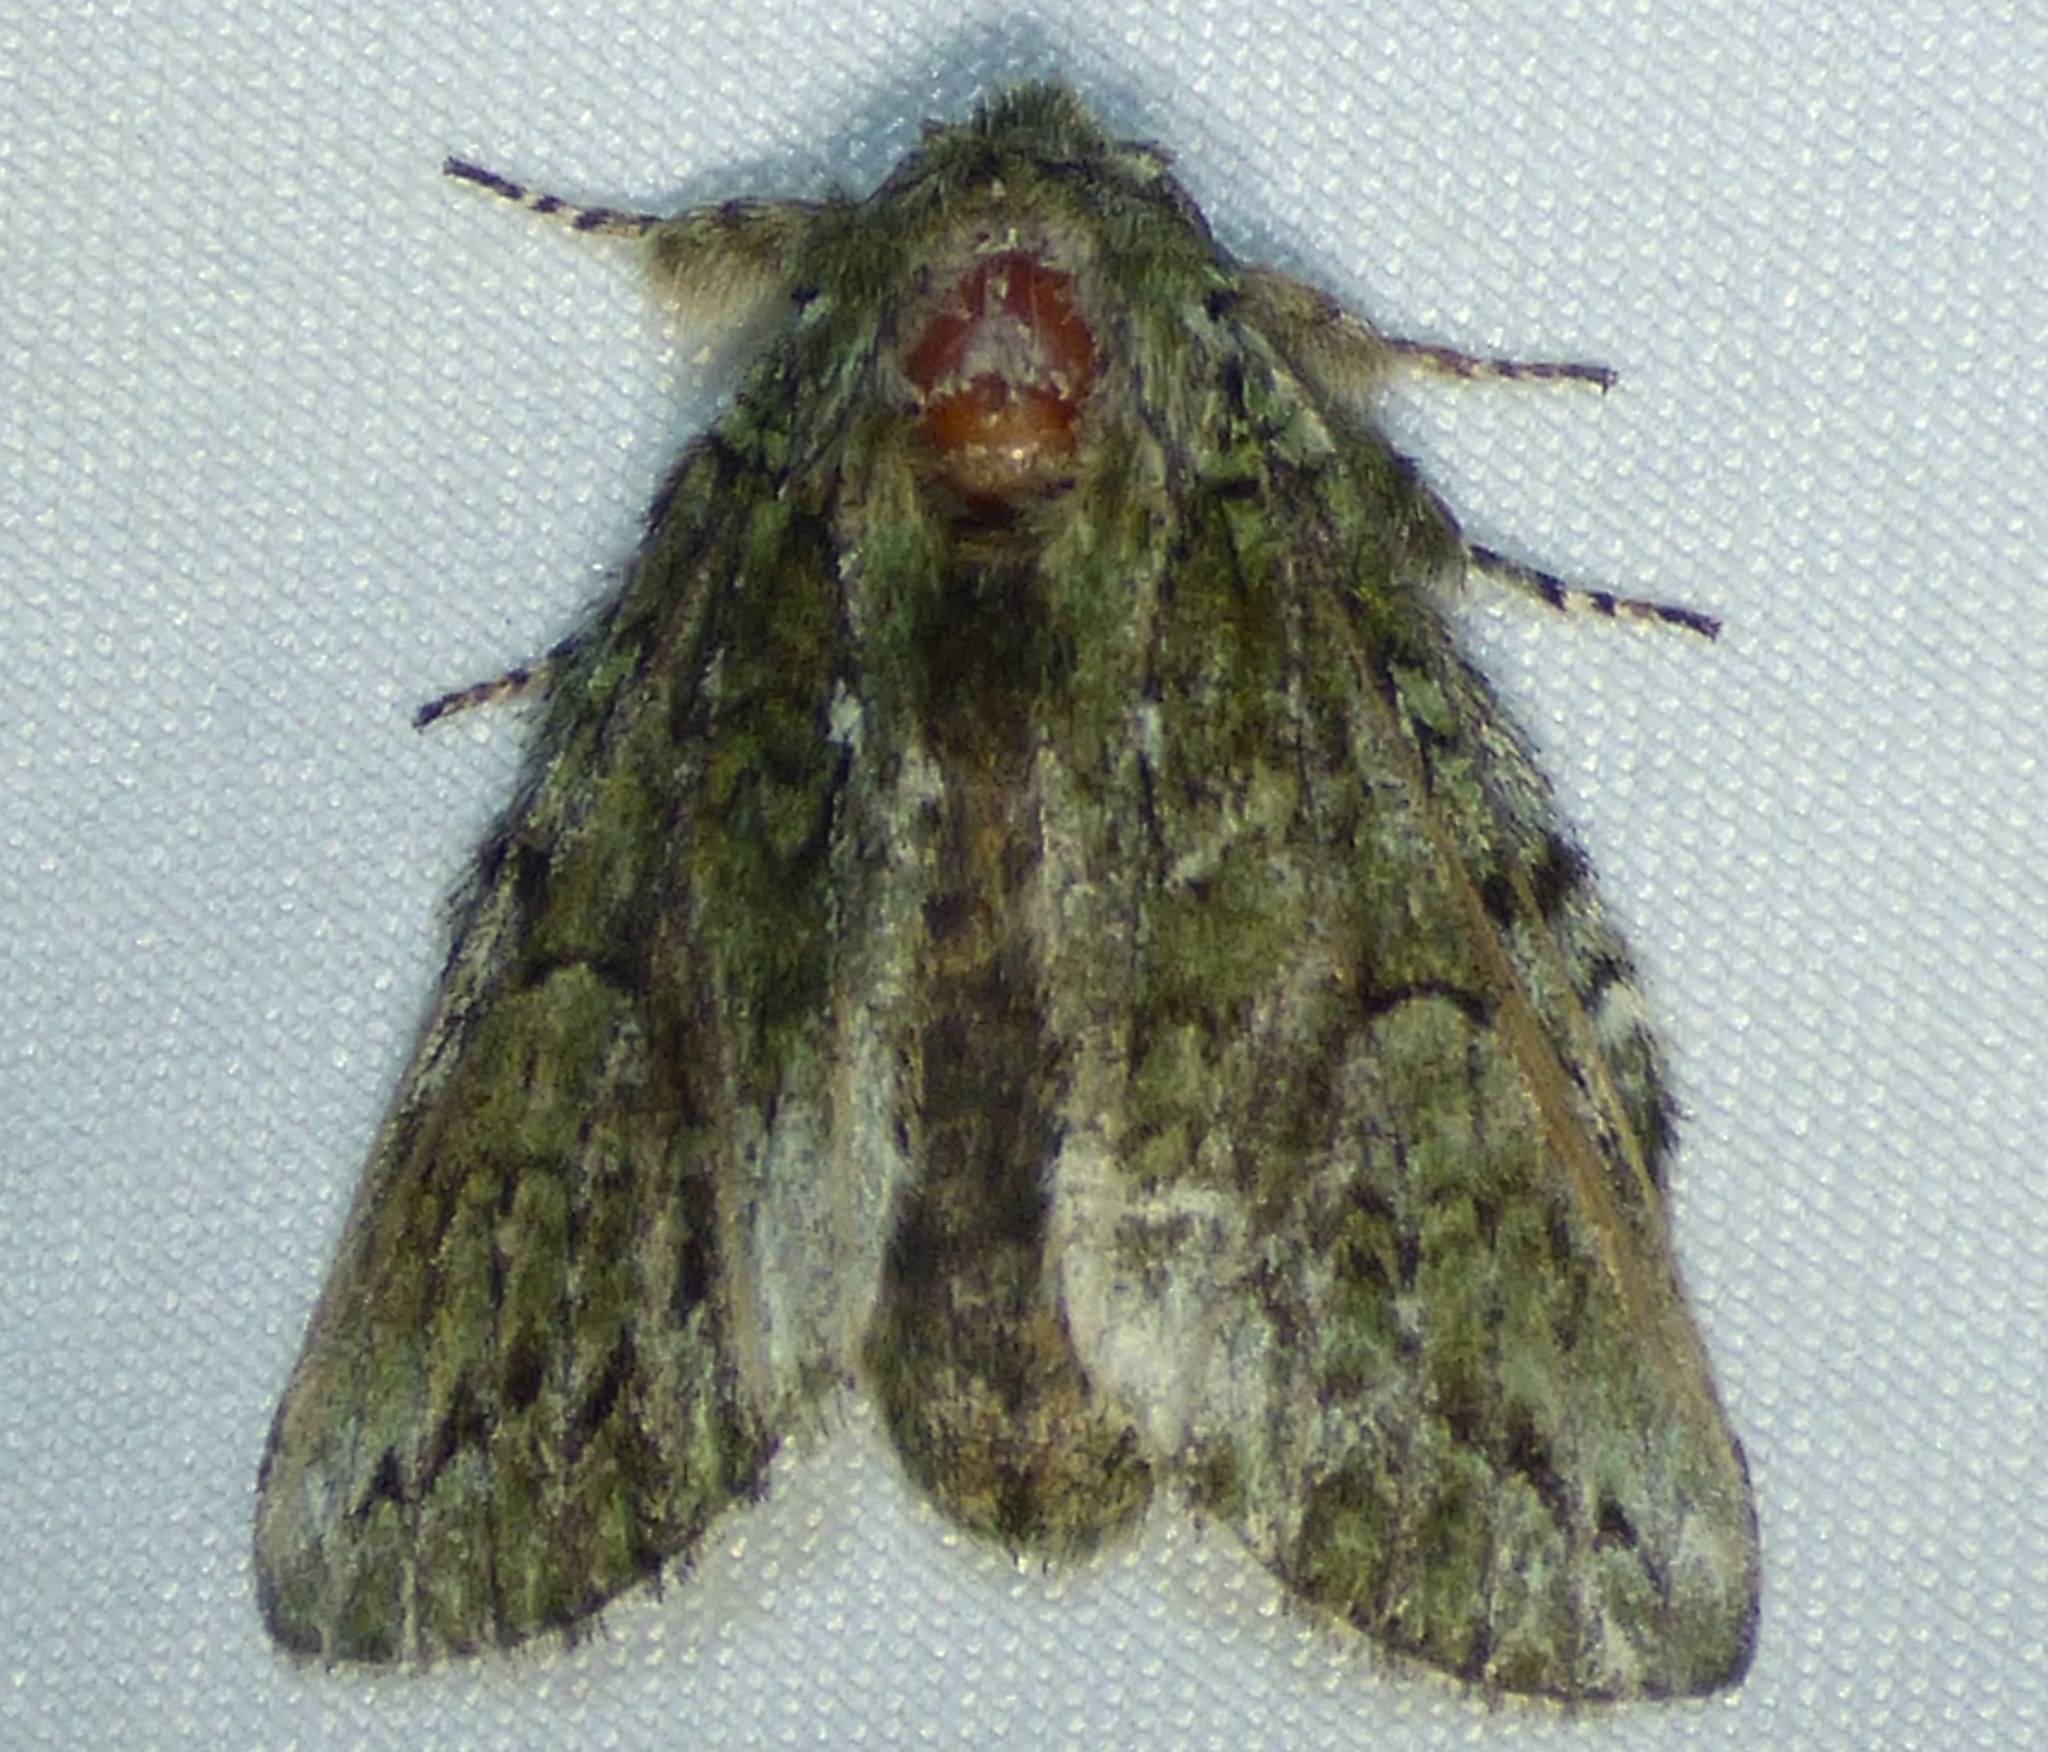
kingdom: Animalia
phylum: Arthropoda
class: Insecta
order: Lepidoptera
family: Notodontidae
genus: Heterocampa
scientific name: Heterocampa
